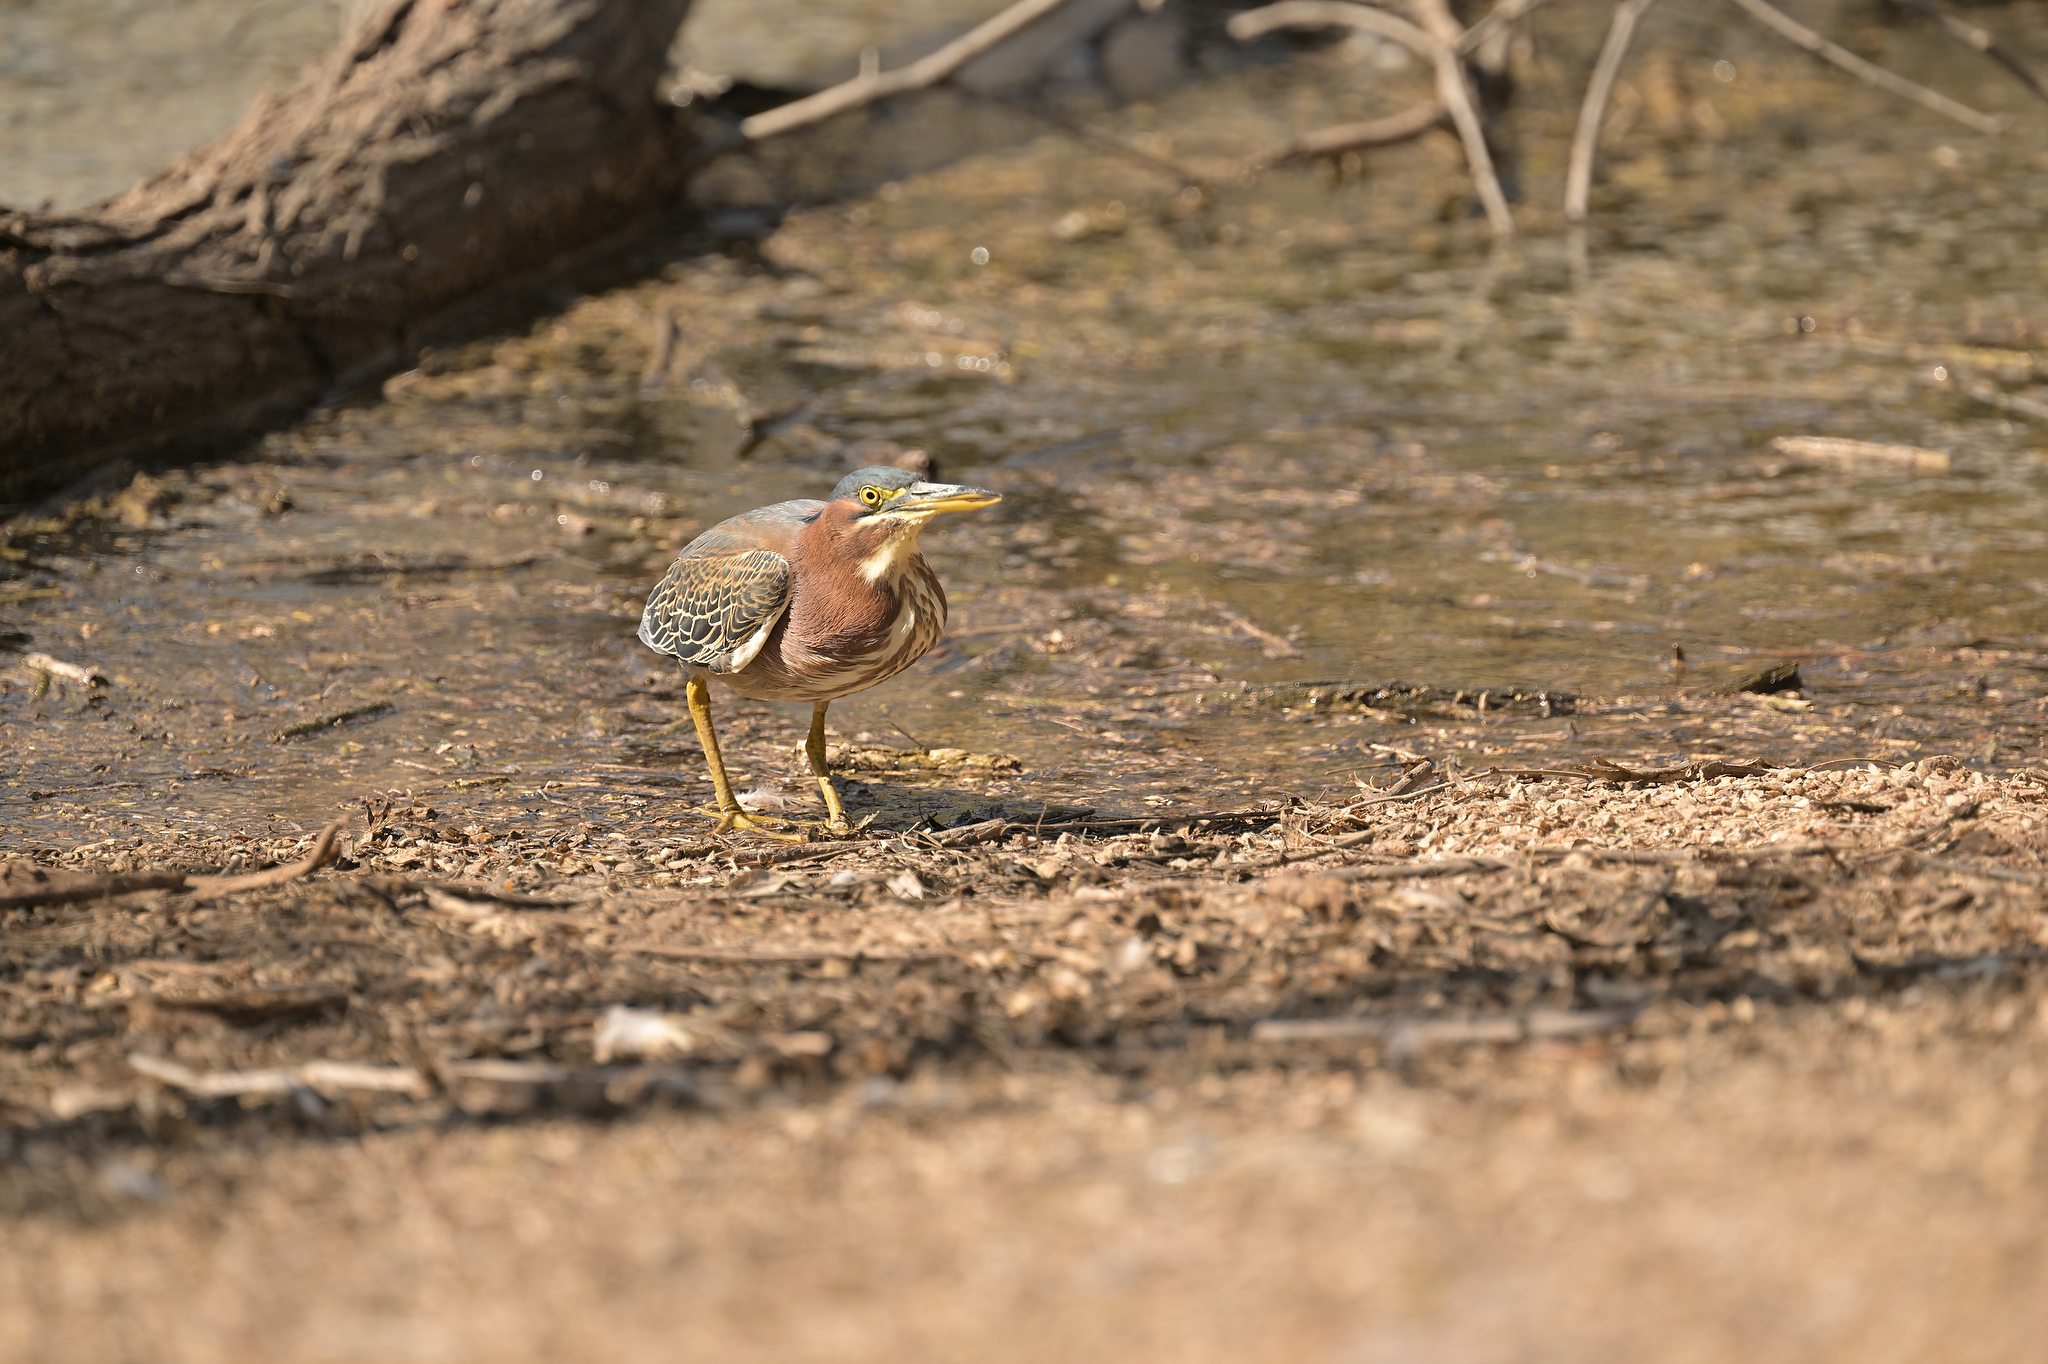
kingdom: Animalia
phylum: Chordata
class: Aves
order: Pelecaniformes
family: Ardeidae
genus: Butorides
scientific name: Butorides virescens
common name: Green heron
